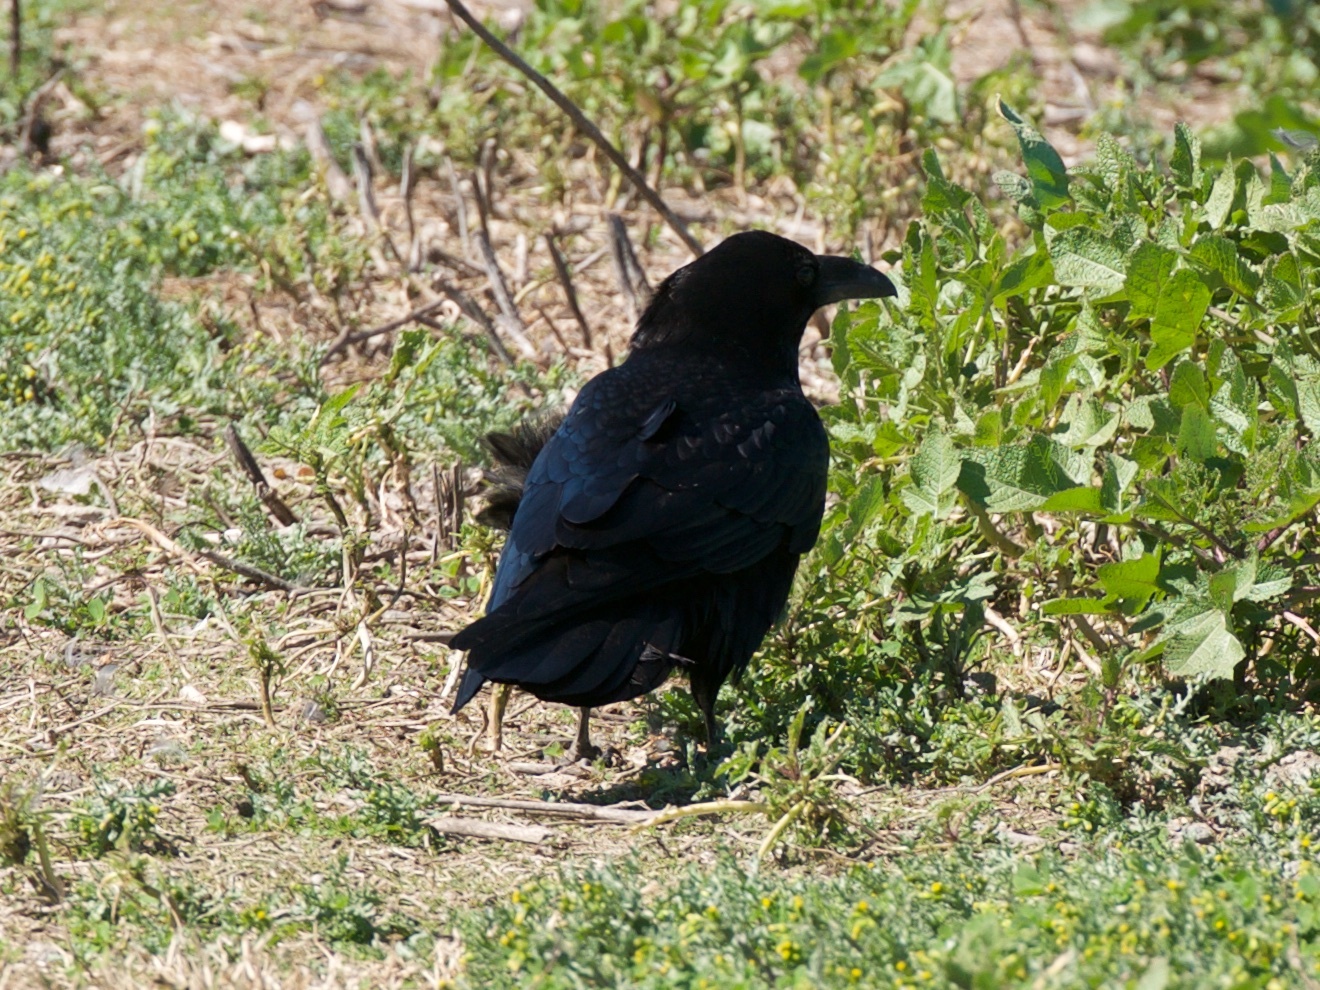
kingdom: Animalia
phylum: Chordata
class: Aves
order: Passeriformes
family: Corvidae
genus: Corvus
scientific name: Corvus corax
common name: Common raven
